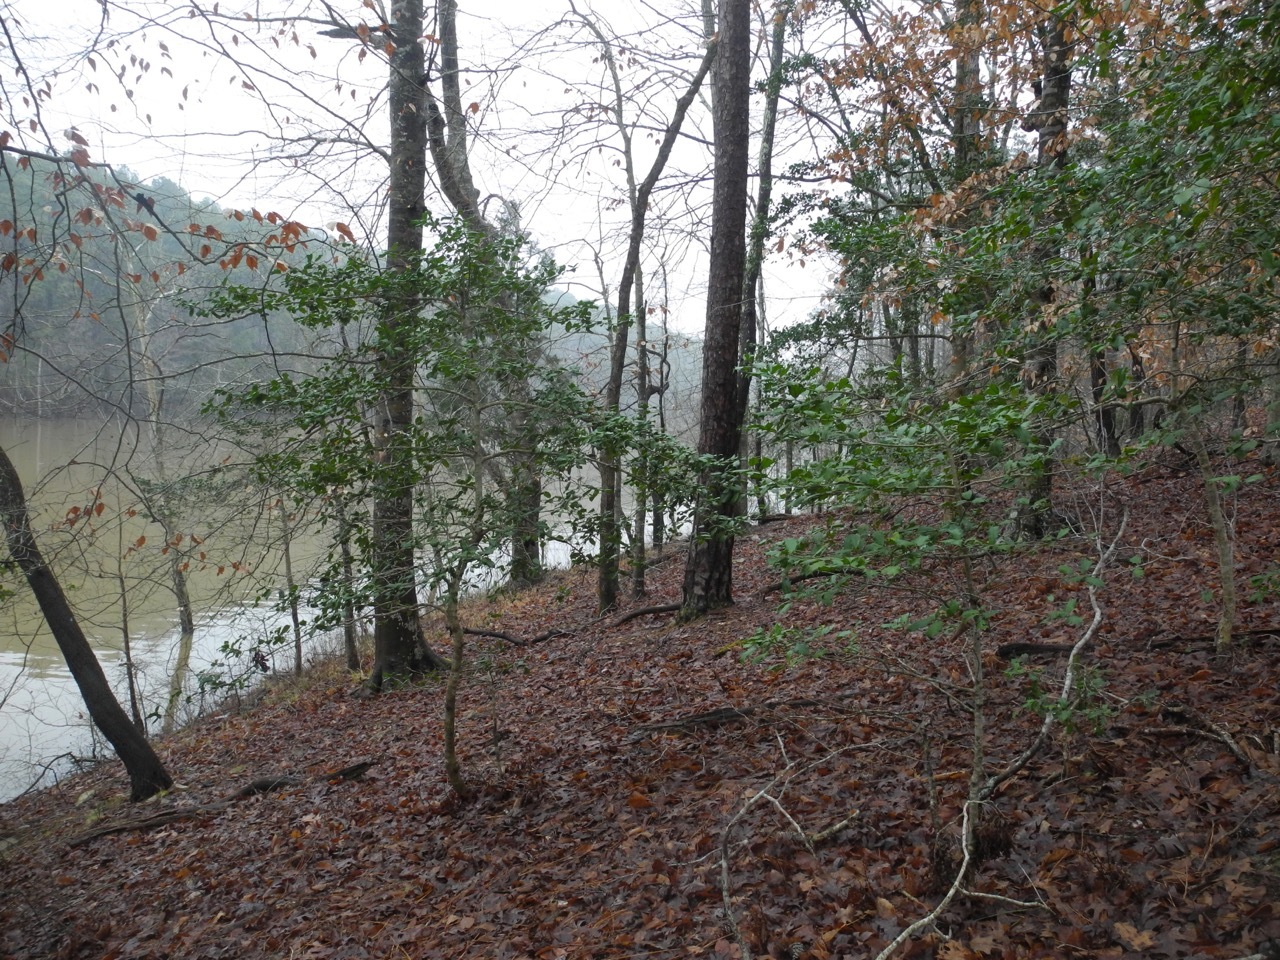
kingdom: Plantae
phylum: Tracheophyta
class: Magnoliopsida
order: Aquifoliales
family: Aquifoliaceae
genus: Ilex
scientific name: Ilex opaca
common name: American holly
